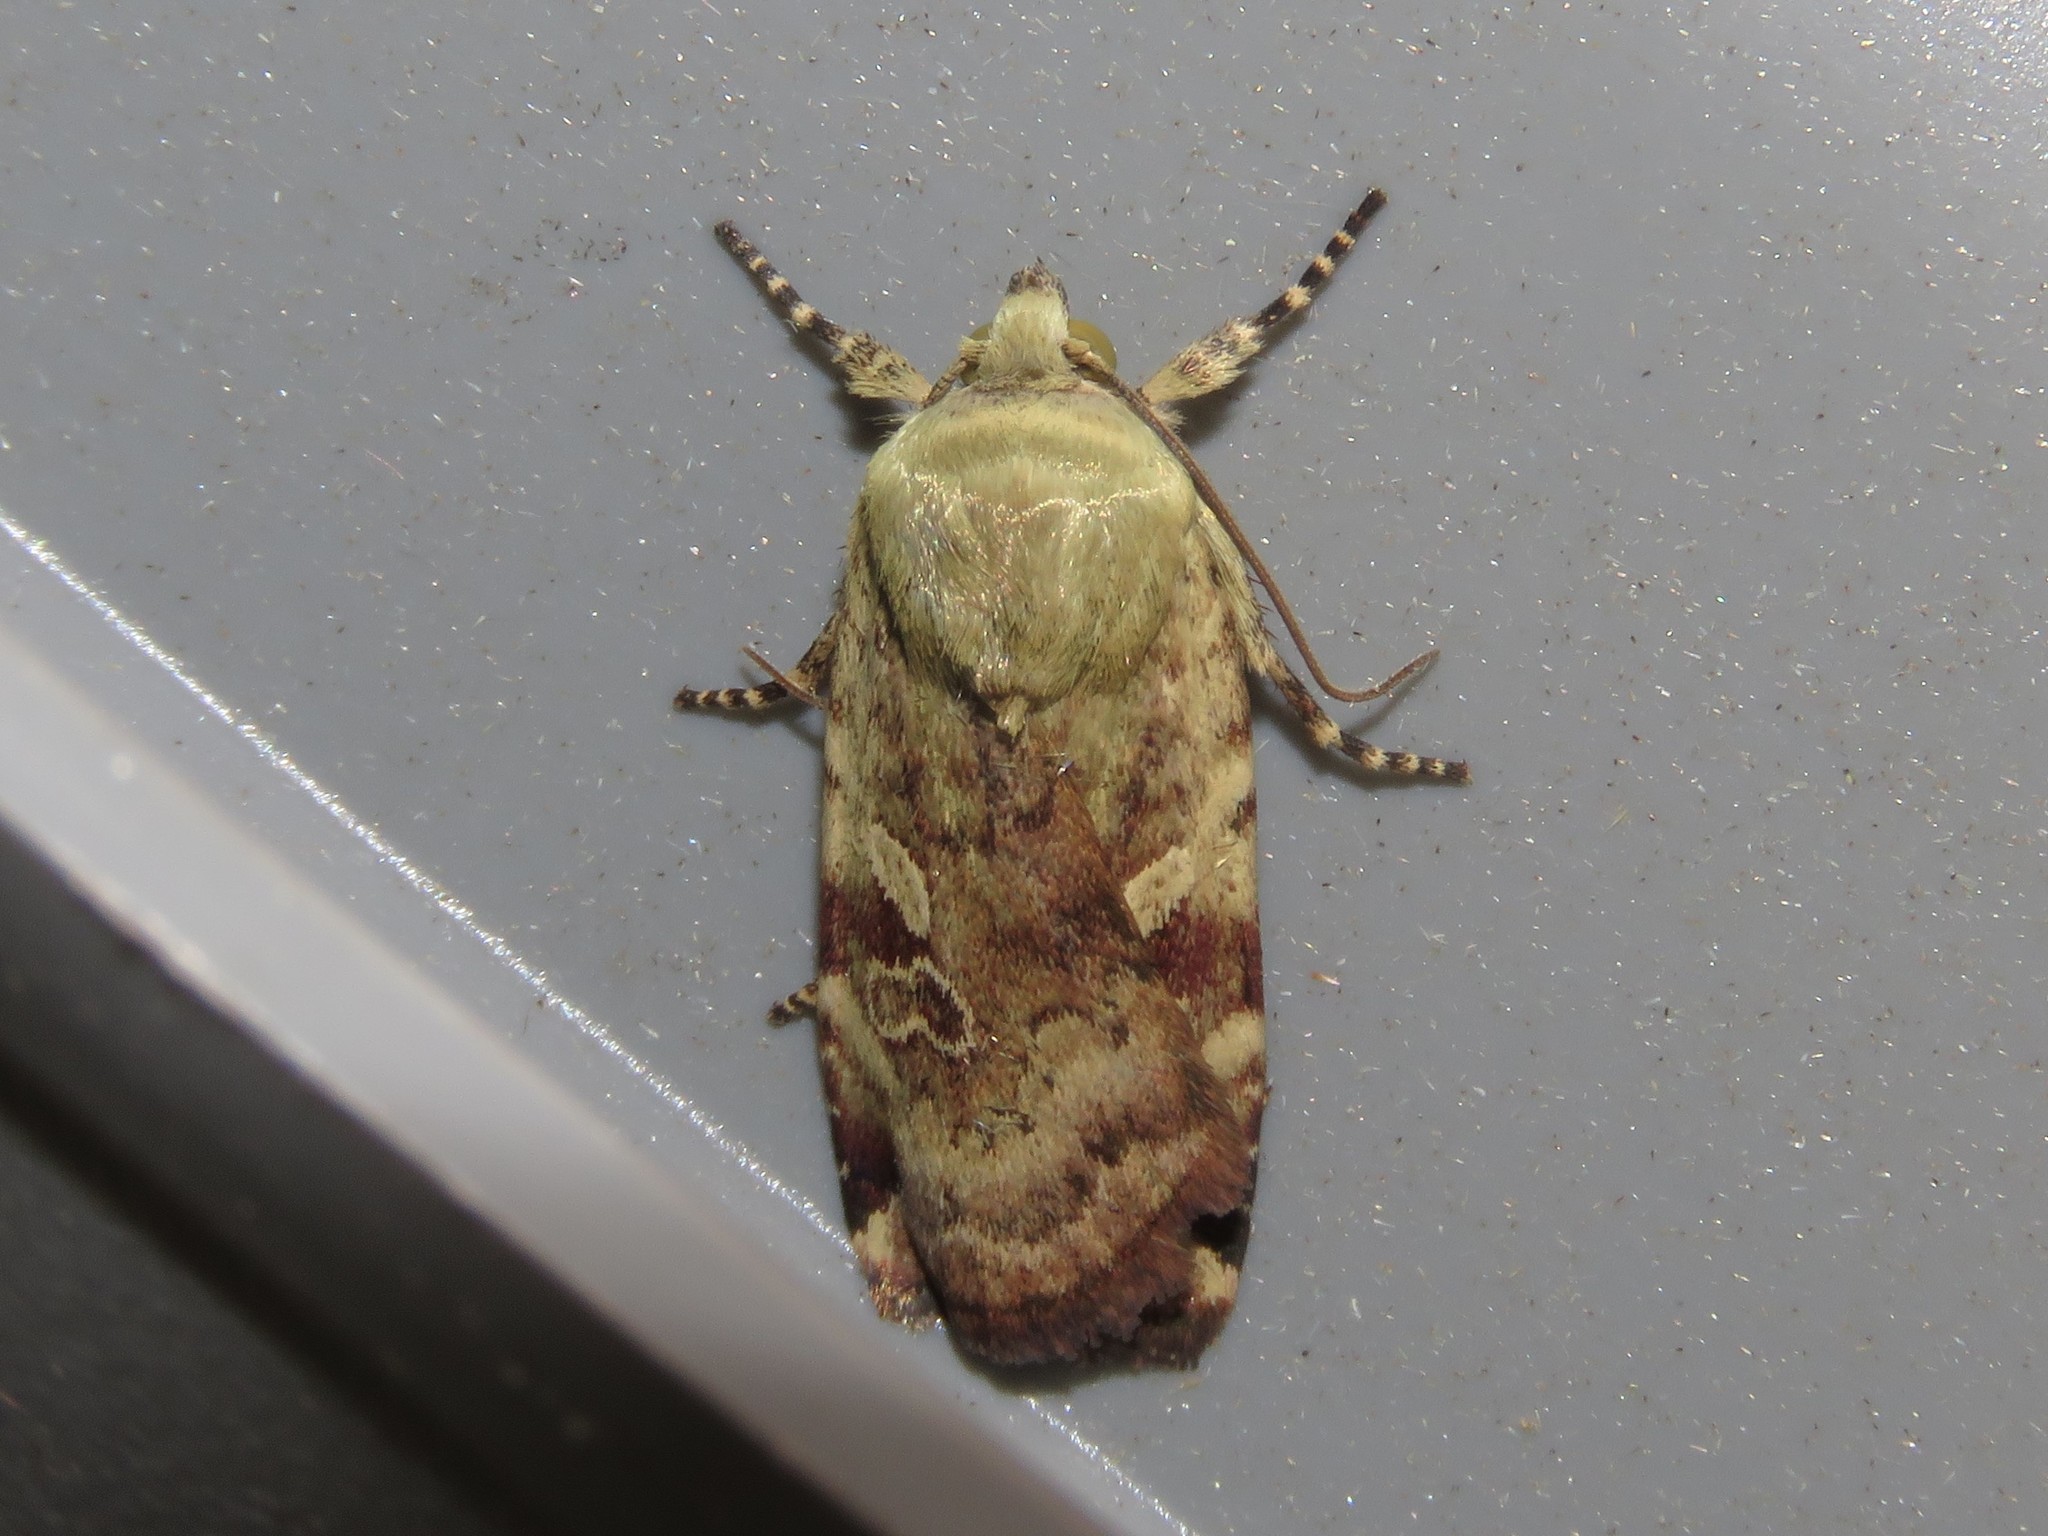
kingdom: Animalia
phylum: Arthropoda
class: Insecta
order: Lepidoptera
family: Noctuidae
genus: Cryptocala
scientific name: Cryptocala acadiensis
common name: Catocaline dart
